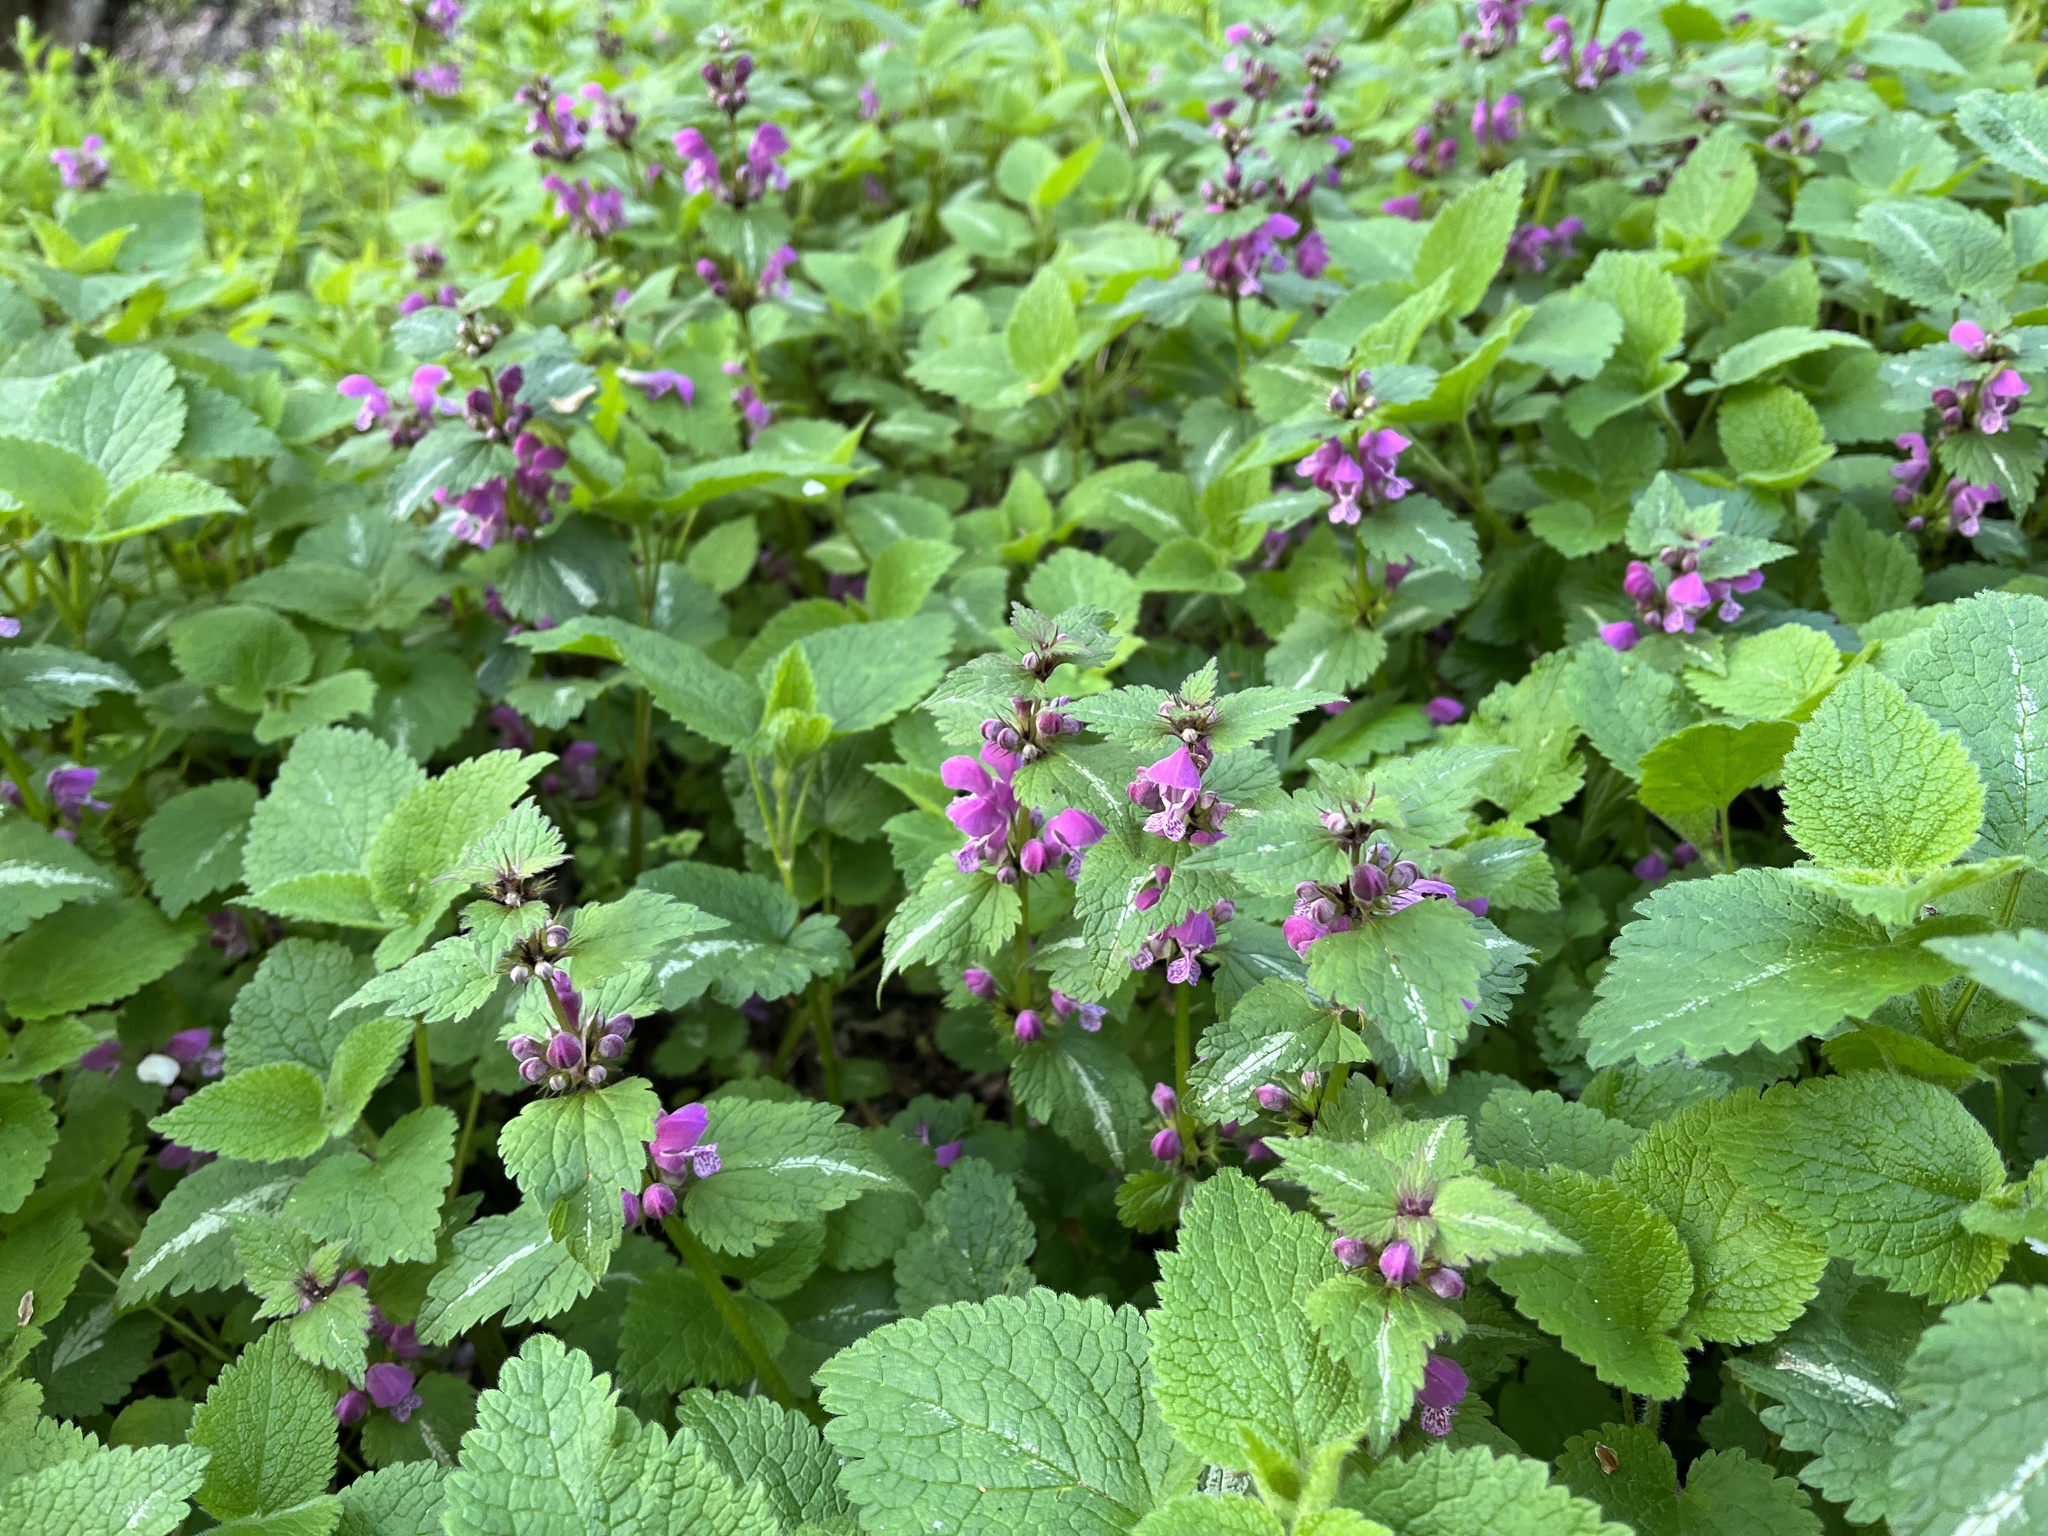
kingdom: Plantae
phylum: Tracheophyta
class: Magnoliopsida
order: Lamiales
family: Lamiaceae
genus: Lamium
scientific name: Lamium maculatum
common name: Spotted dead-nettle
